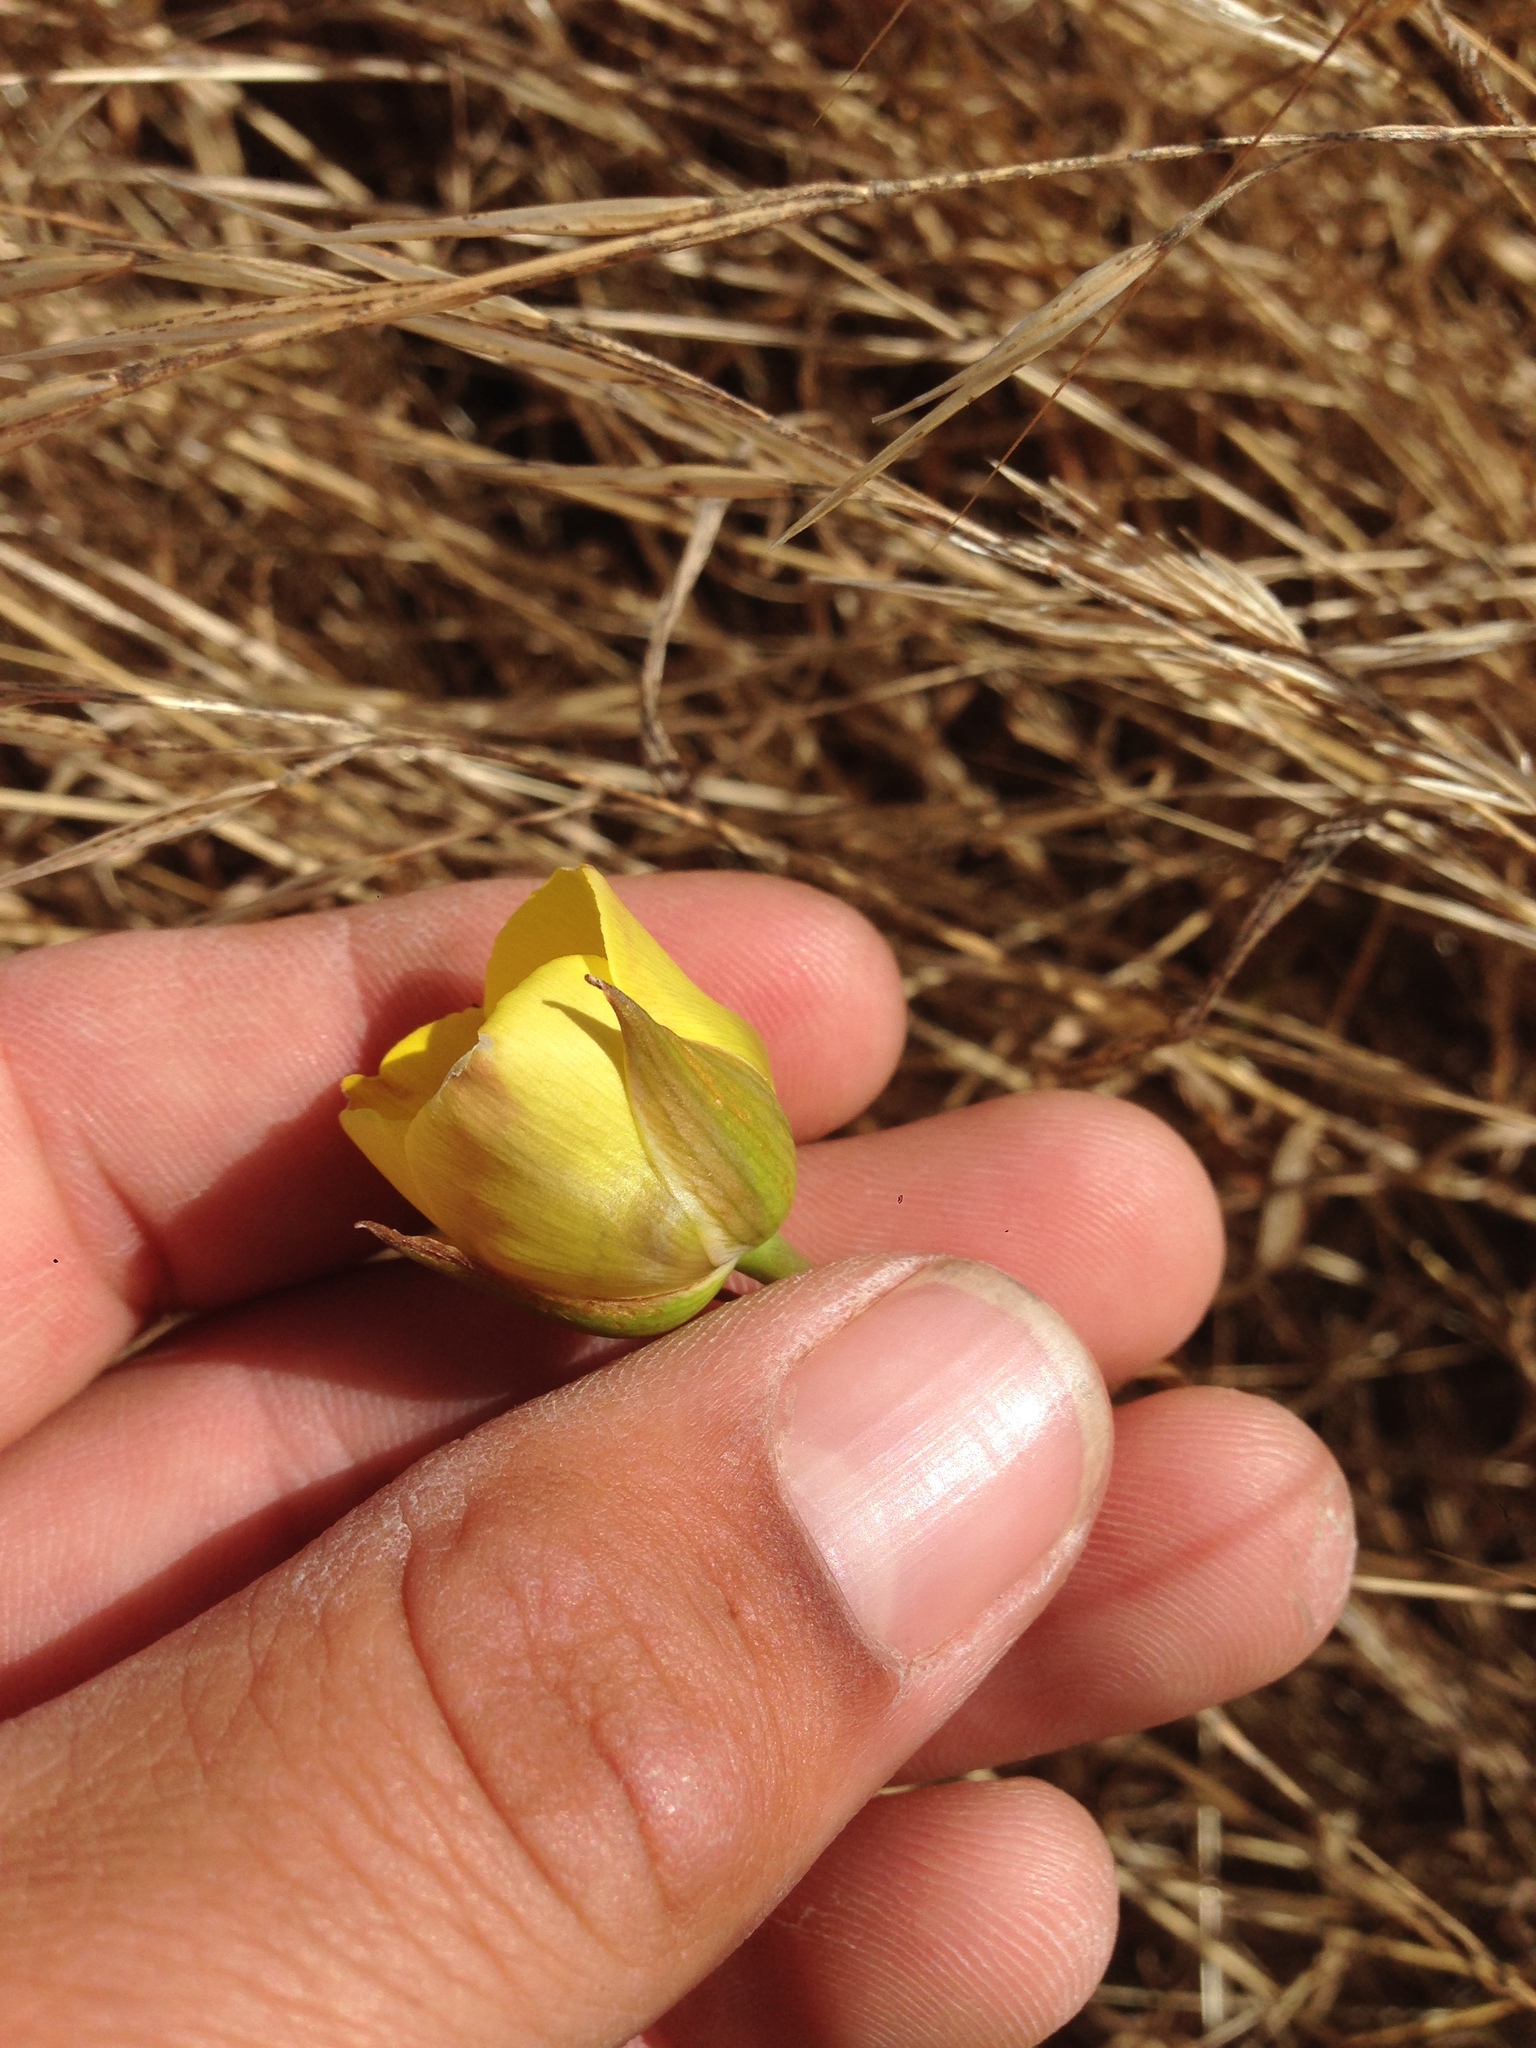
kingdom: Plantae
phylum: Tracheophyta
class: Liliopsida
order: Liliales
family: Liliaceae
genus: Calochortus
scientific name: Calochortus clavatus
